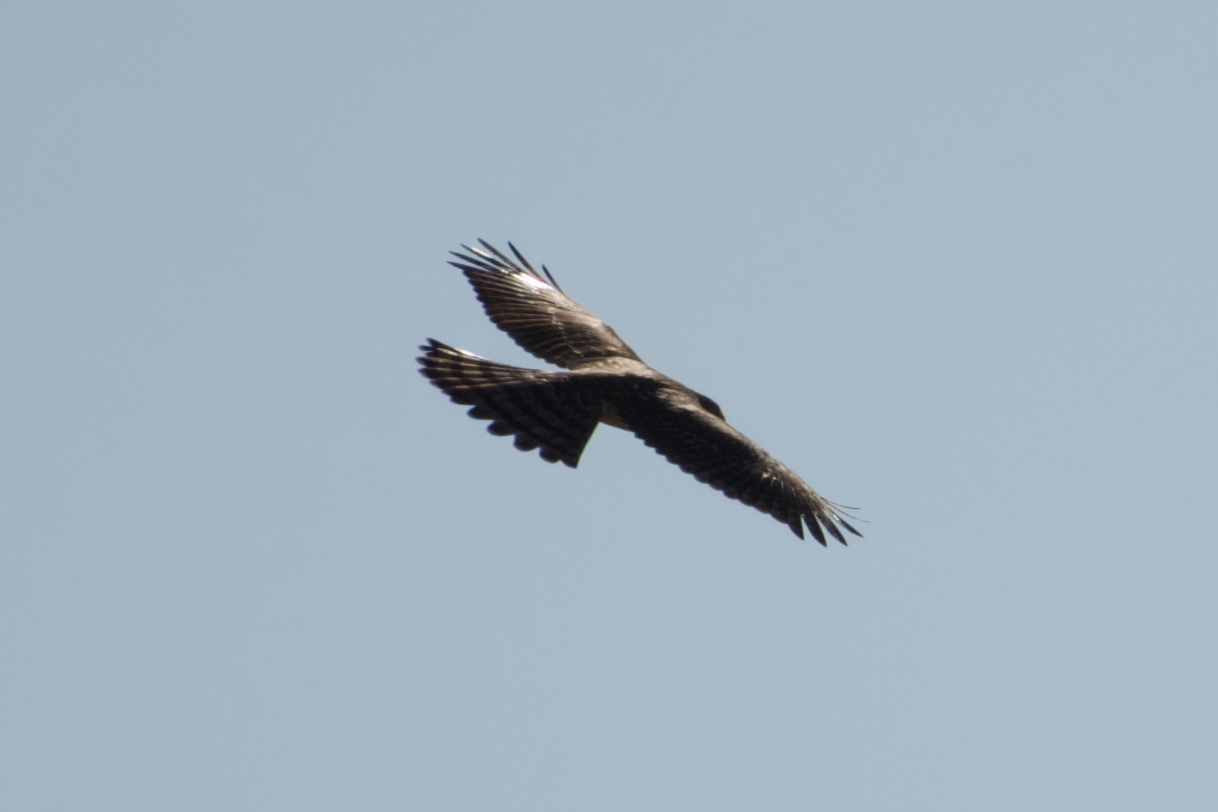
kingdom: Animalia
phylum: Chordata
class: Aves
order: Accipitriformes
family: Accipitridae
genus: Accipiter
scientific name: Accipiter cooperii
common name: Cooper's hawk
